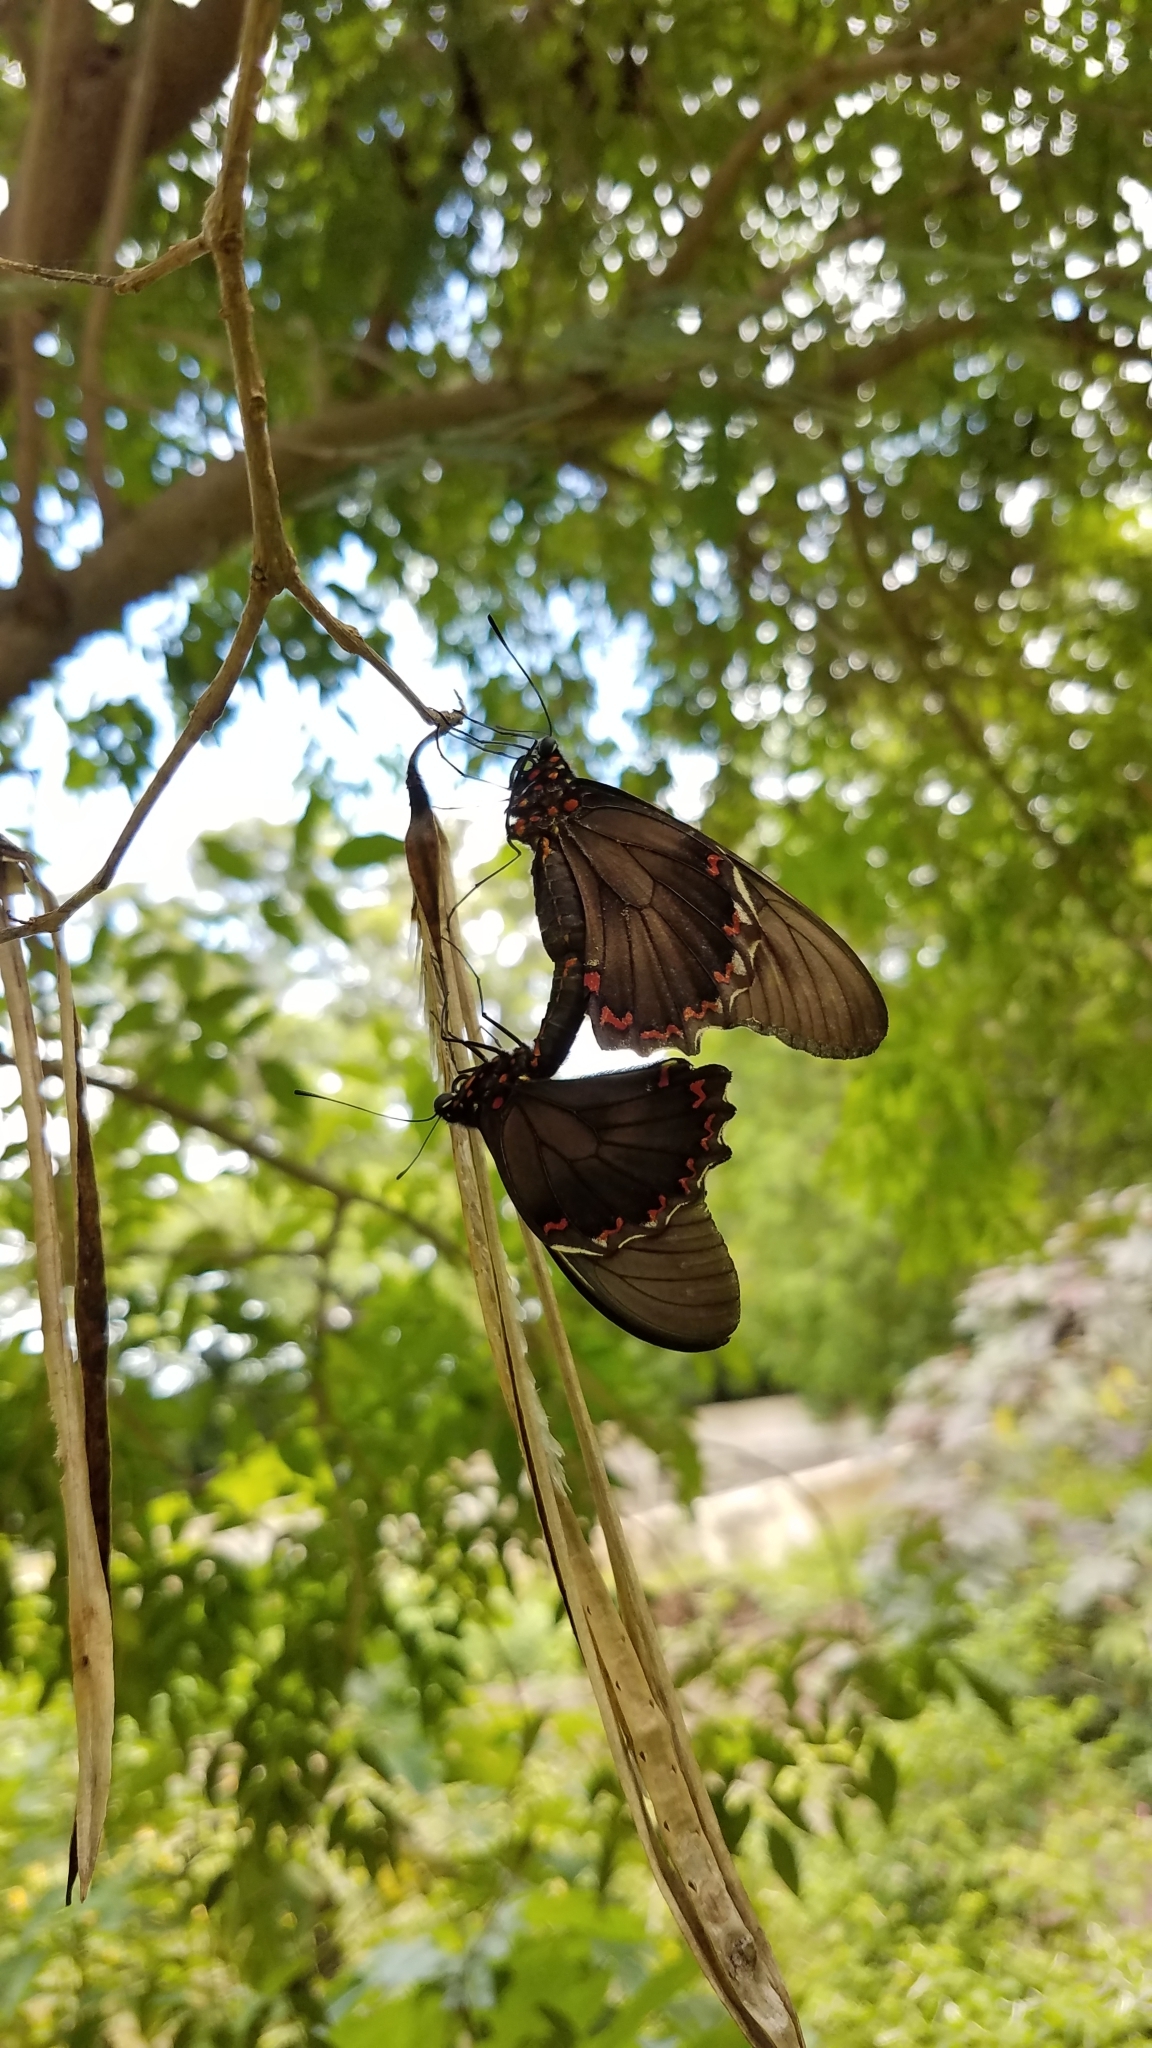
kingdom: Animalia
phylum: Arthropoda
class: Insecta
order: Lepidoptera
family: Papilionidae
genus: Battus
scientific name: Battus polydamas
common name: Polydamas swallowtail
